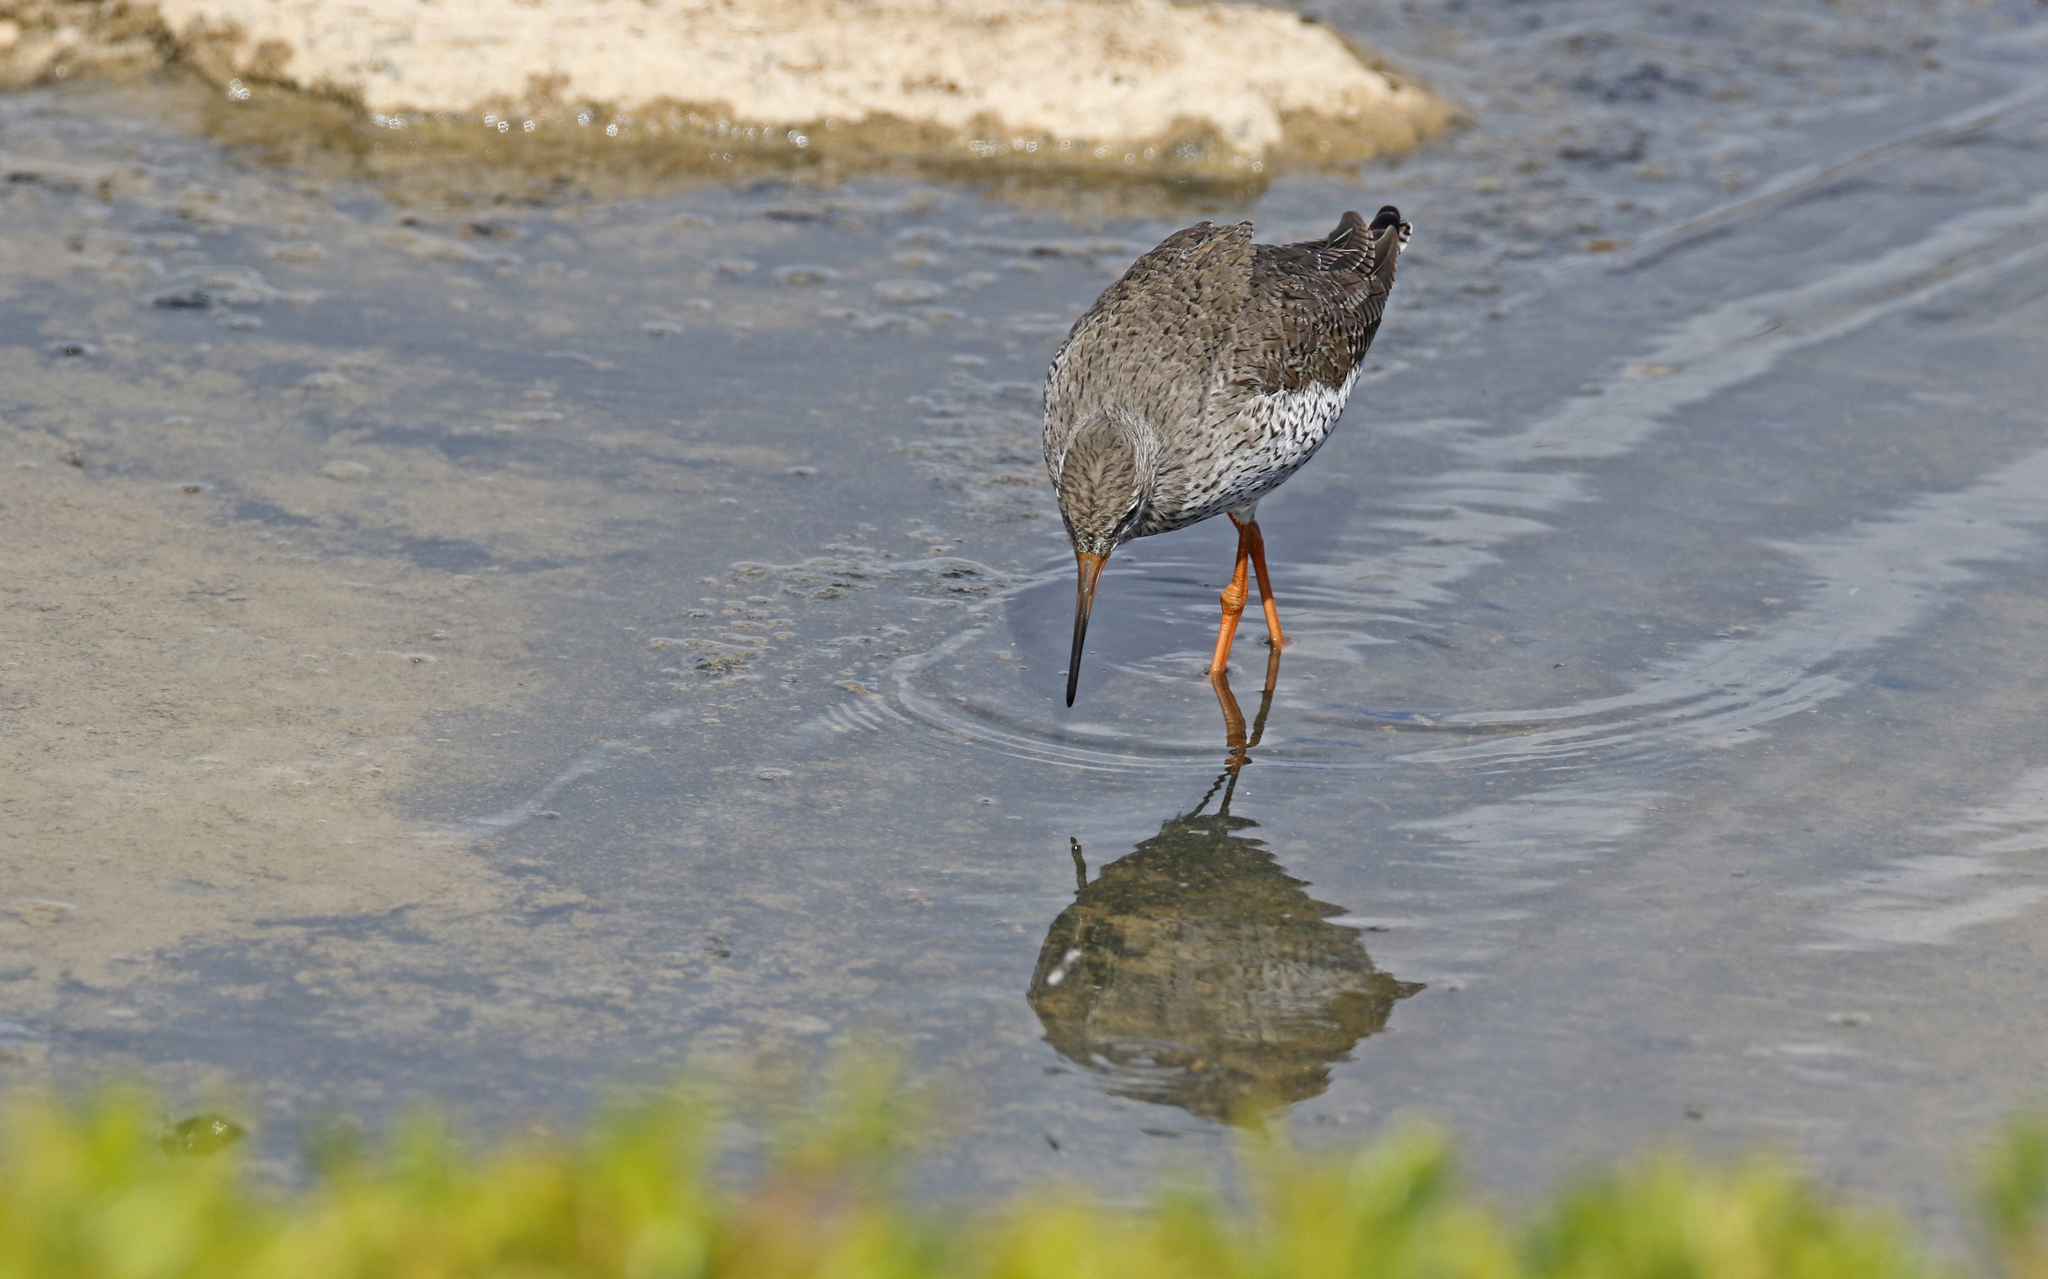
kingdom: Animalia
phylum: Chordata
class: Aves
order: Charadriiformes
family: Scolopacidae
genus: Tringa
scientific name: Tringa totanus
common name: Common redshank
